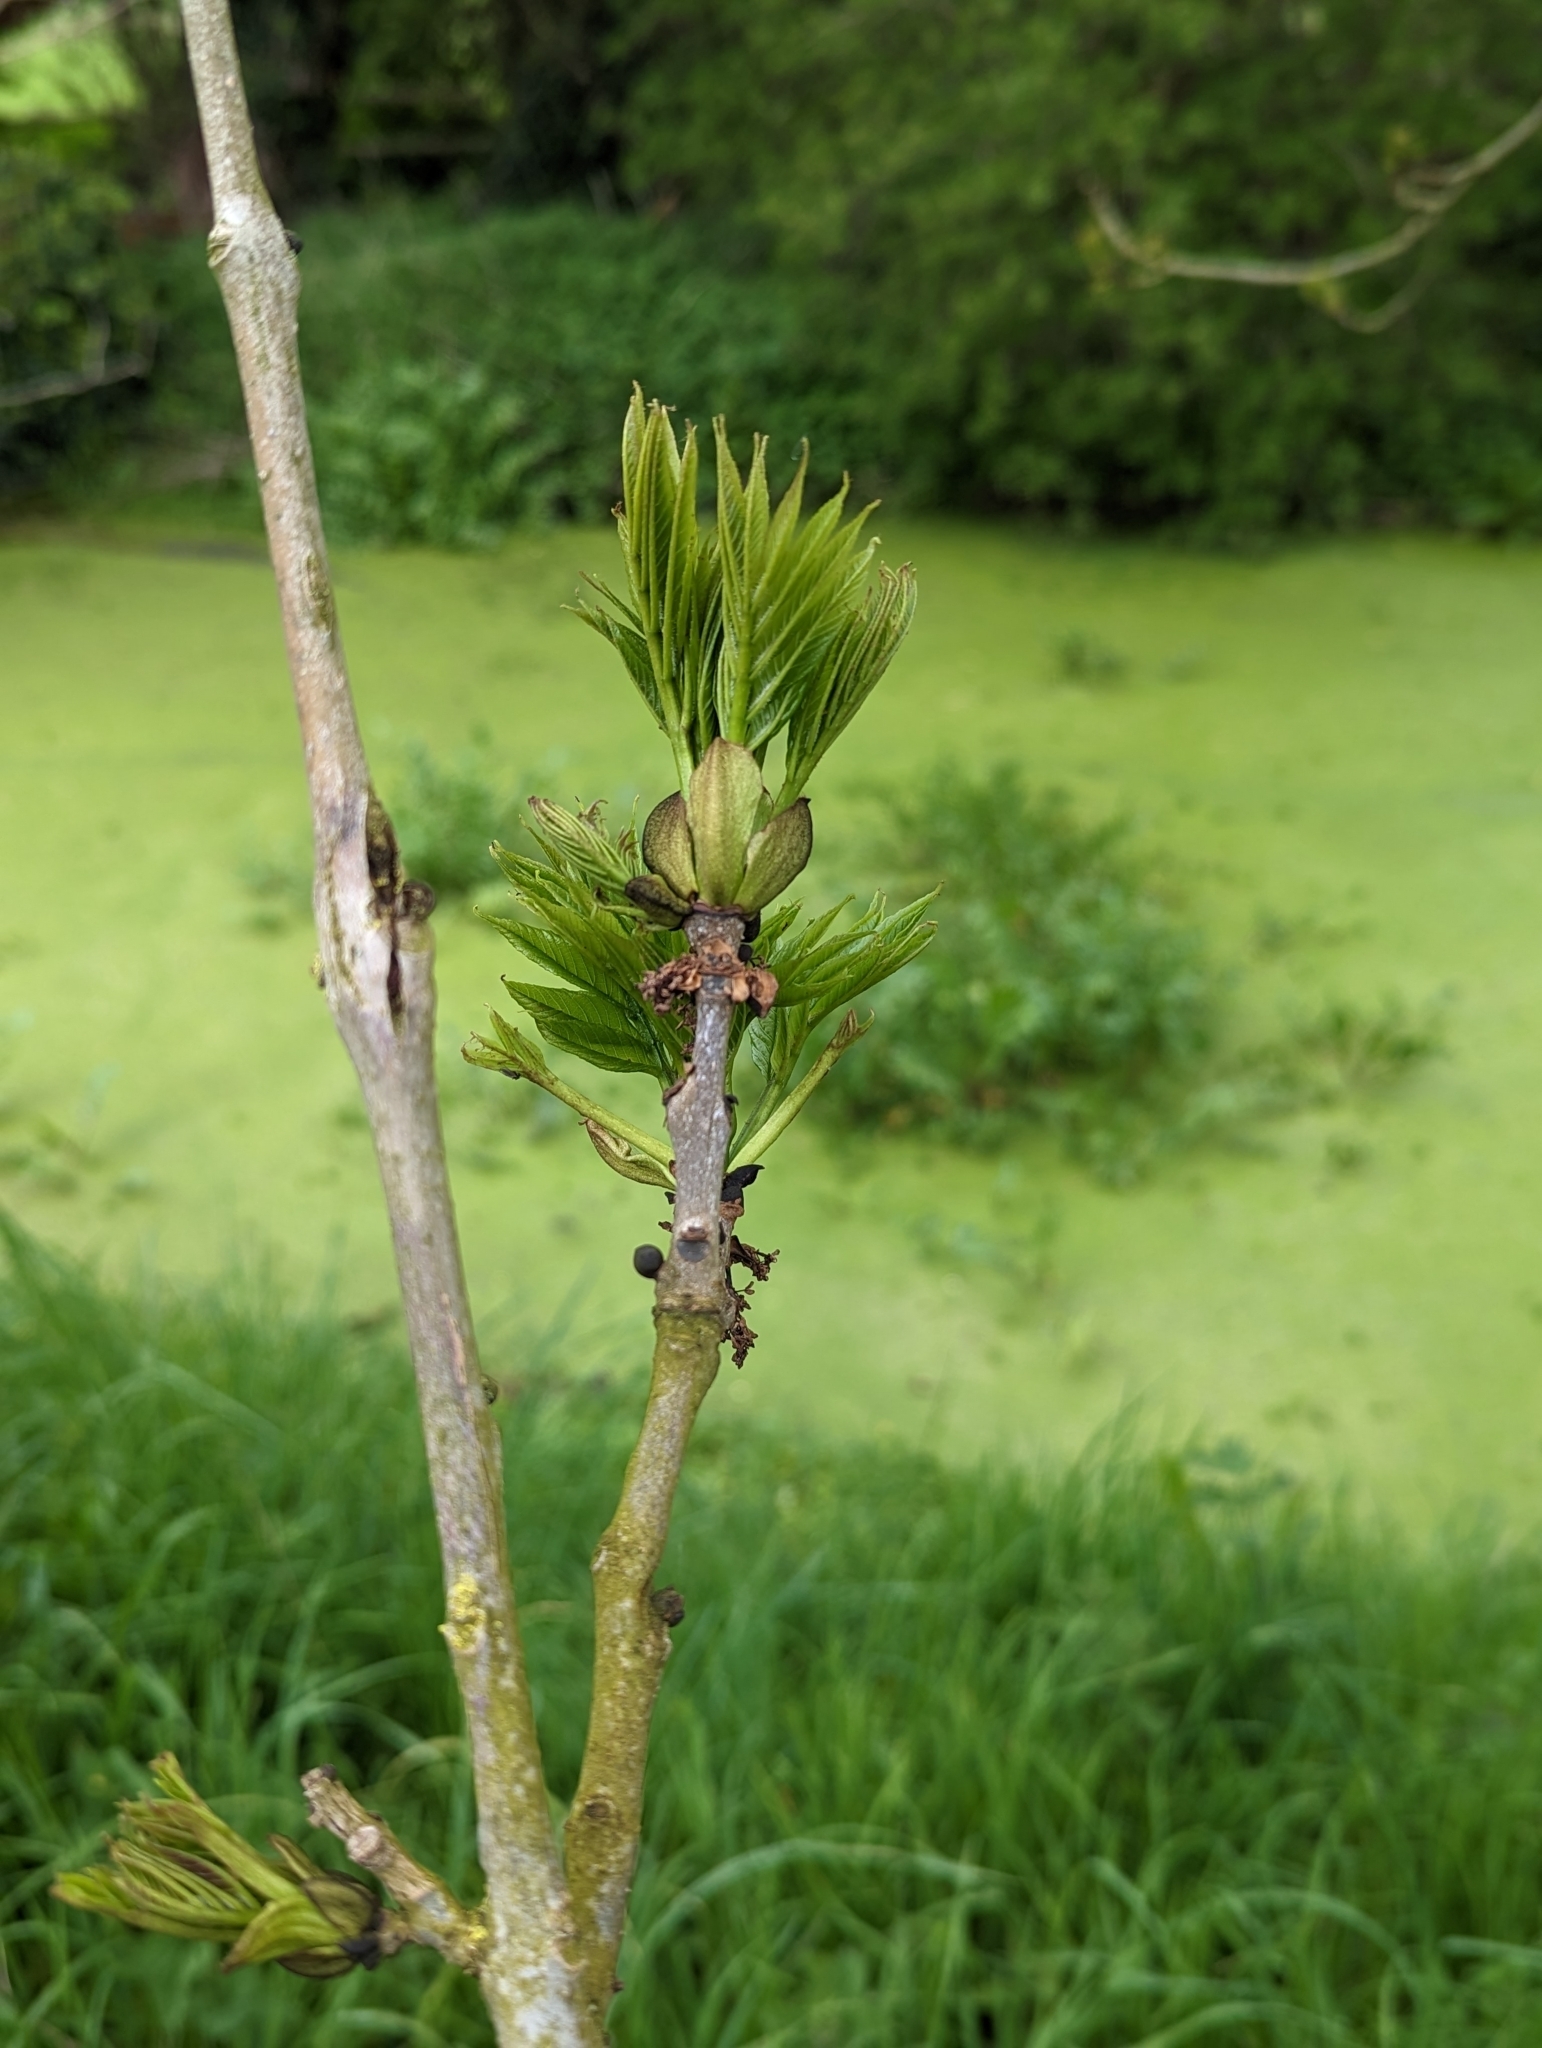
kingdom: Plantae
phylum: Tracheophyta
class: Magnoliopsida
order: Lamiales
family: Oleaceae
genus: Fraxinus
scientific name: Fraxinus excelsior
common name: European ash
